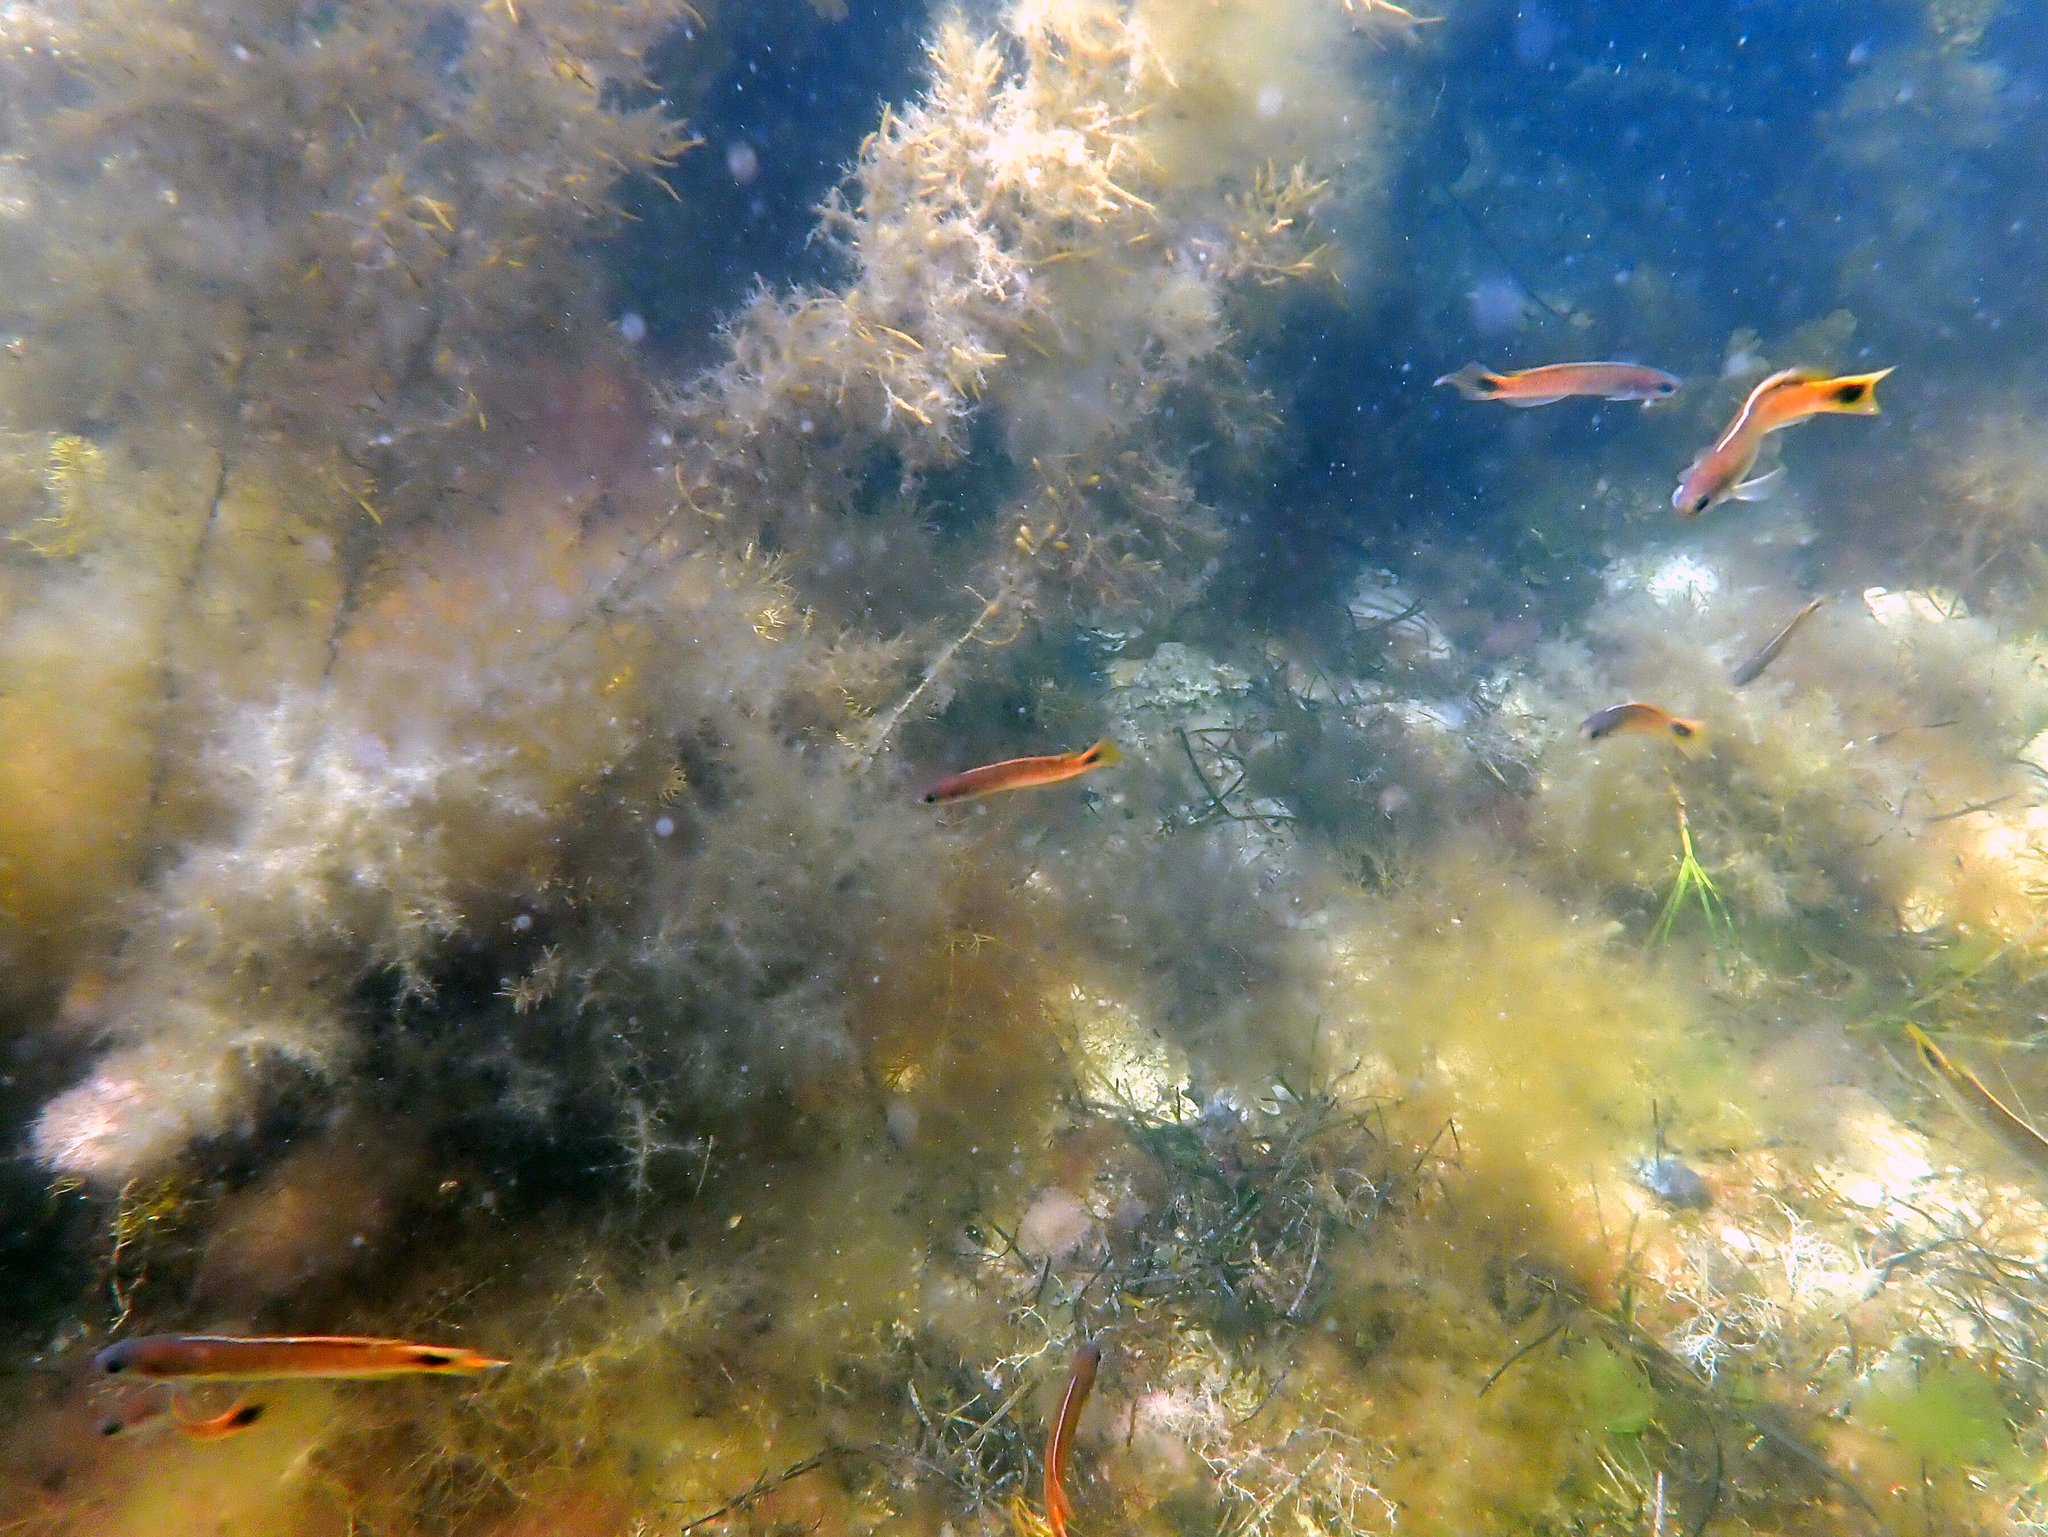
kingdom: Animalia
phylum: Chordata
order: Perciformes
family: Plesiopidae
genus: Trachinops
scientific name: Trachinops caudimaculatus
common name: Blotched-tailed trachinops
